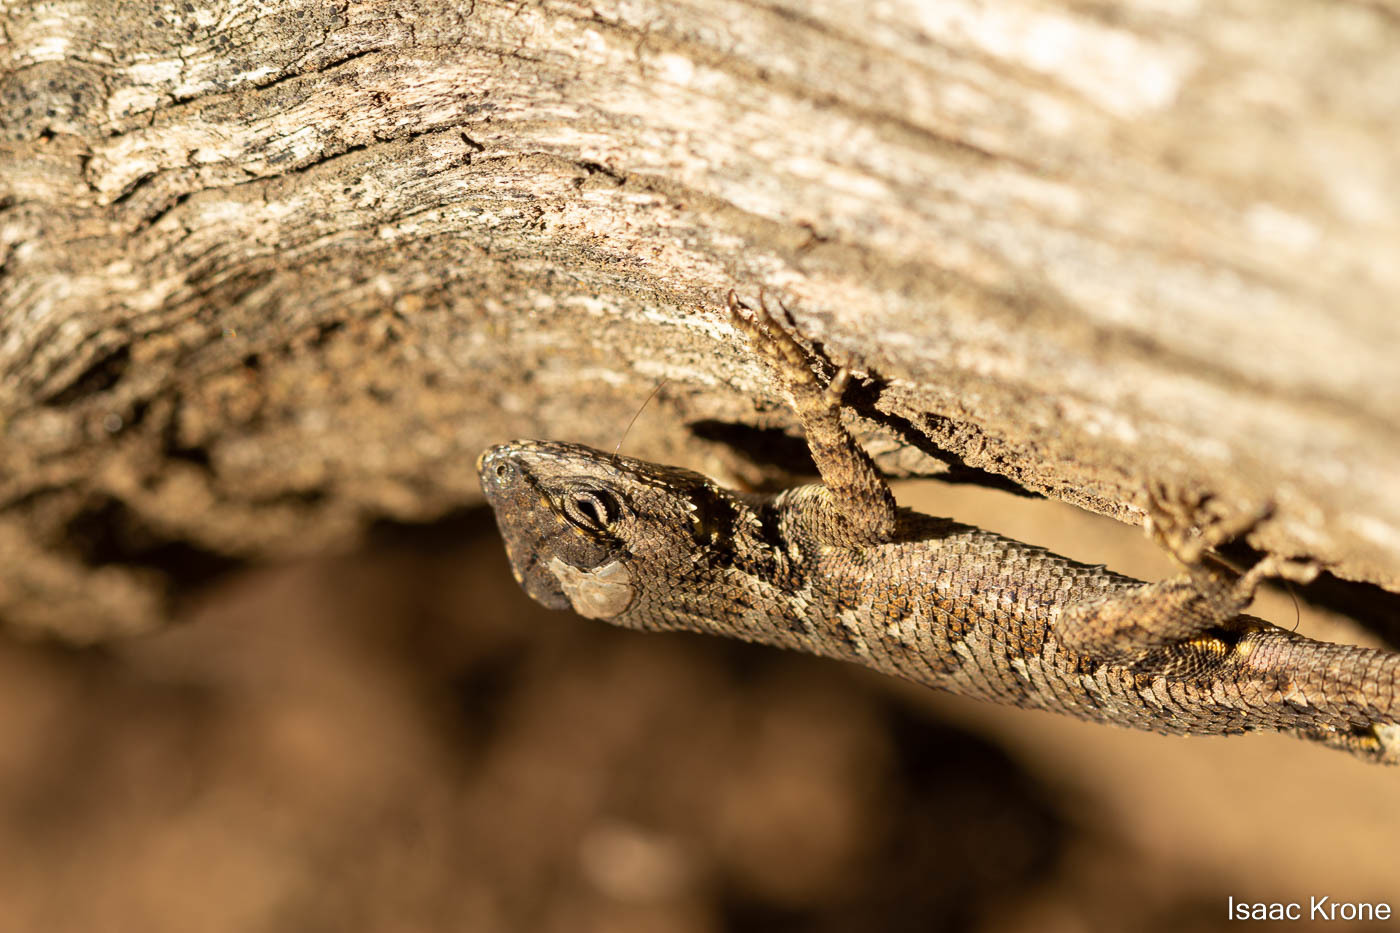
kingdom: Animalia
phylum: Chordata
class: Squamata
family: Phrynosomatidae
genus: Sceloporus
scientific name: Sceloporus occidentalis
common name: Western fence lizard
